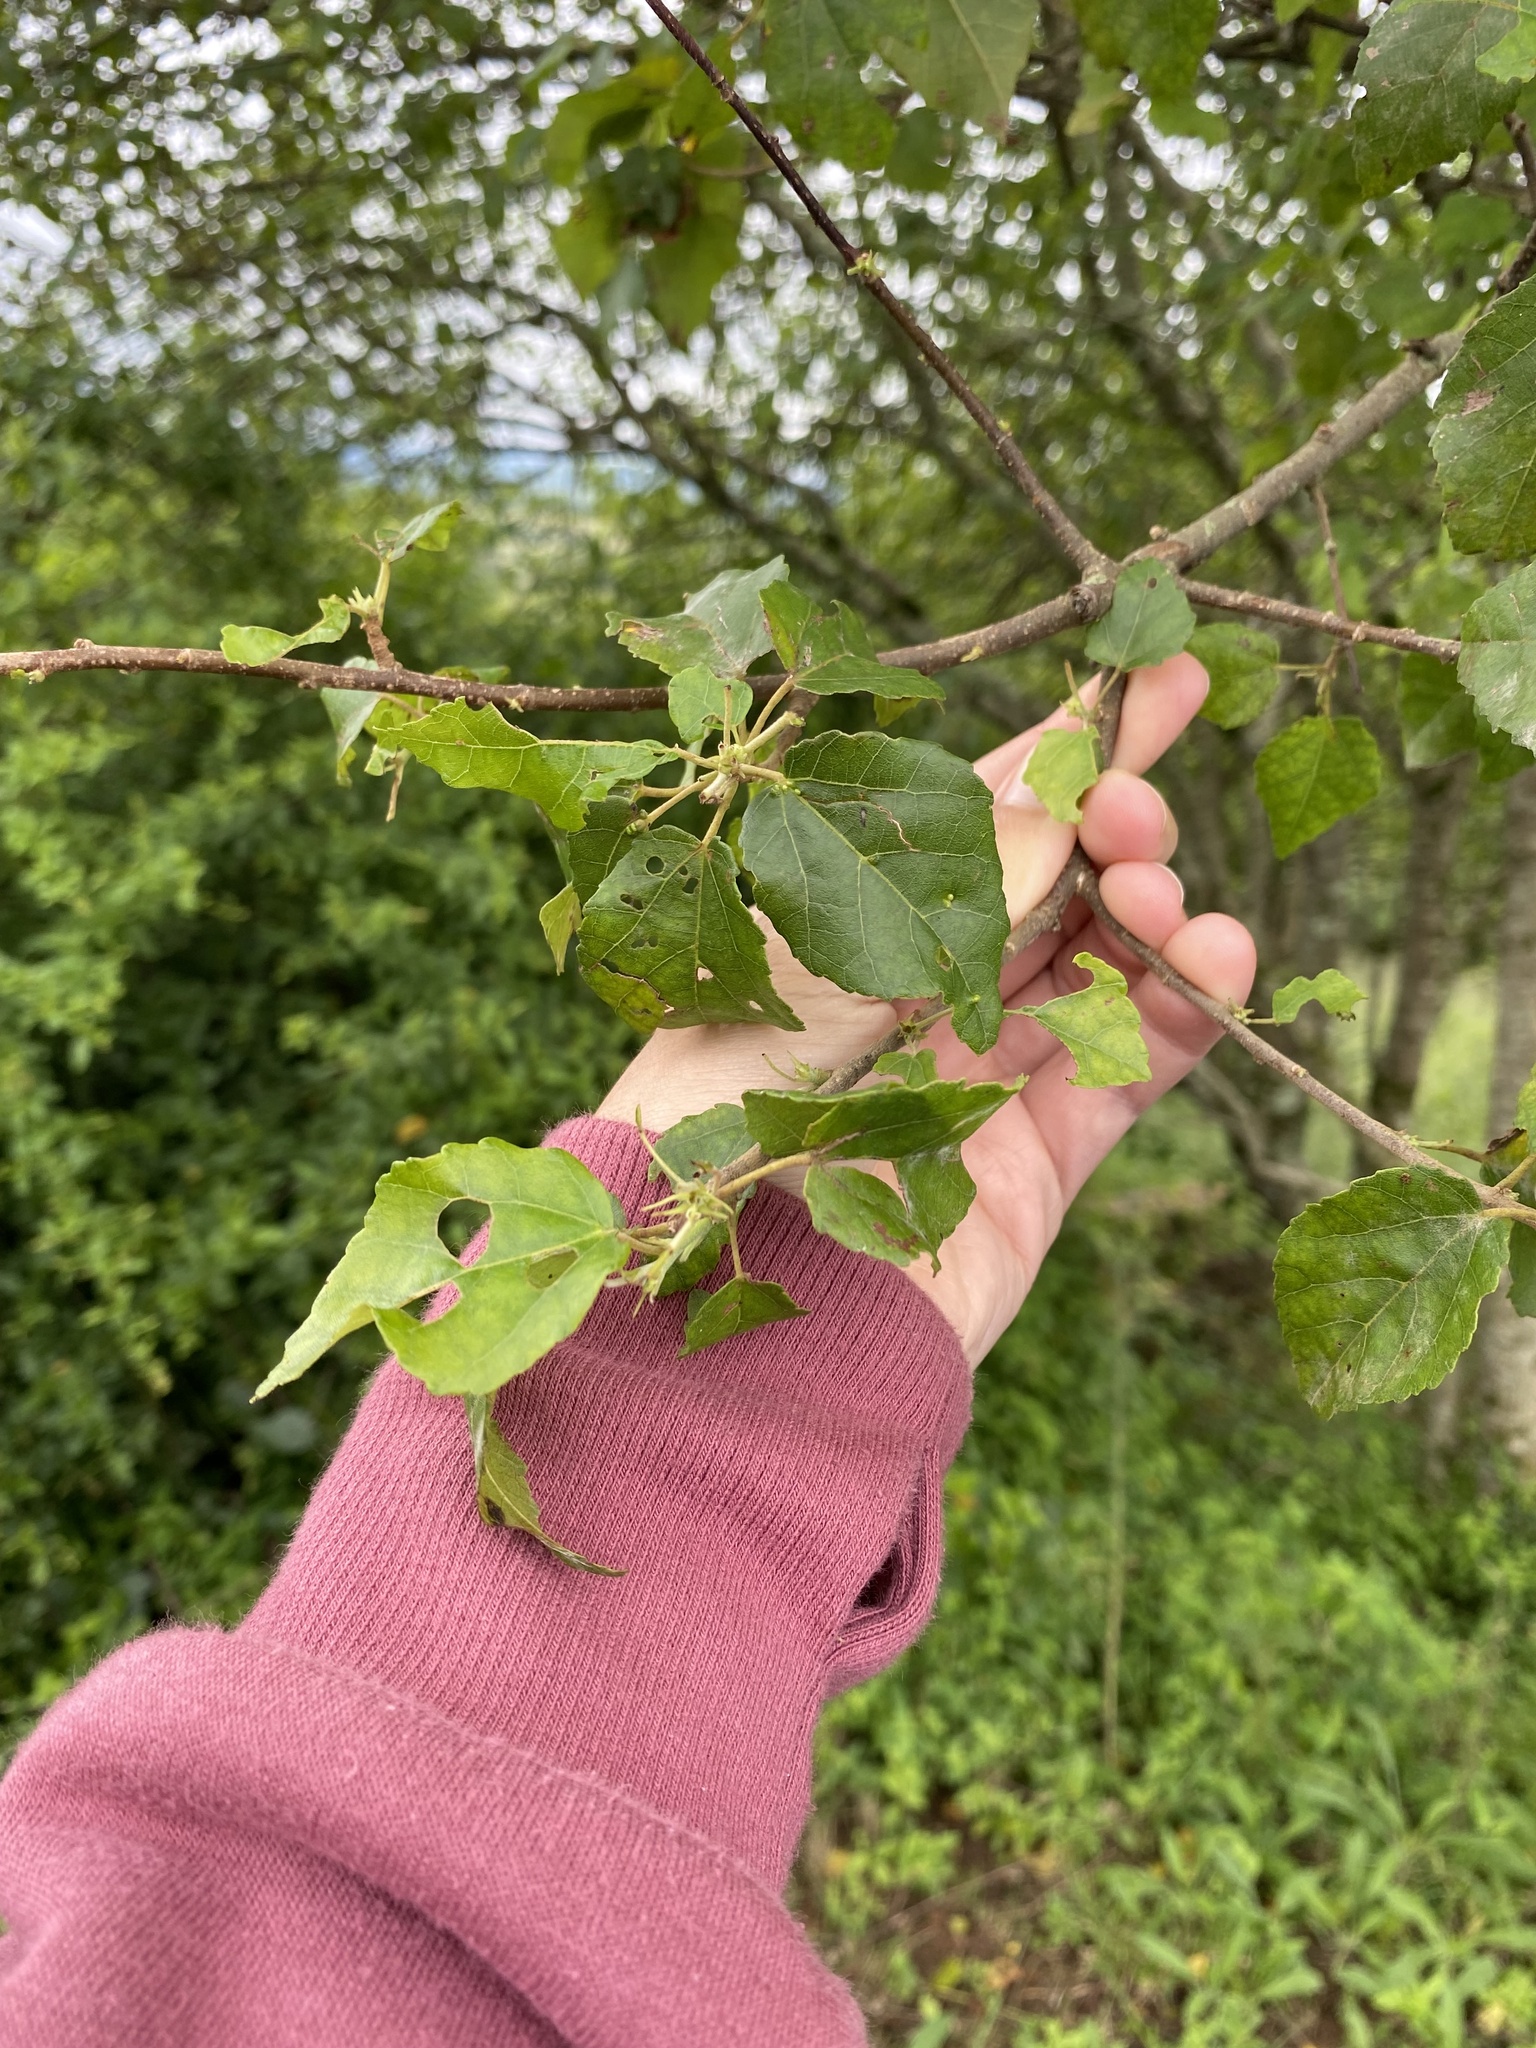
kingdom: Plantae
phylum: Tracheophyta
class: Magnoliopsida
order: Malvales
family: Malvaceae
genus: Grewia
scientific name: Grewia occidentalis
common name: Crossberry
